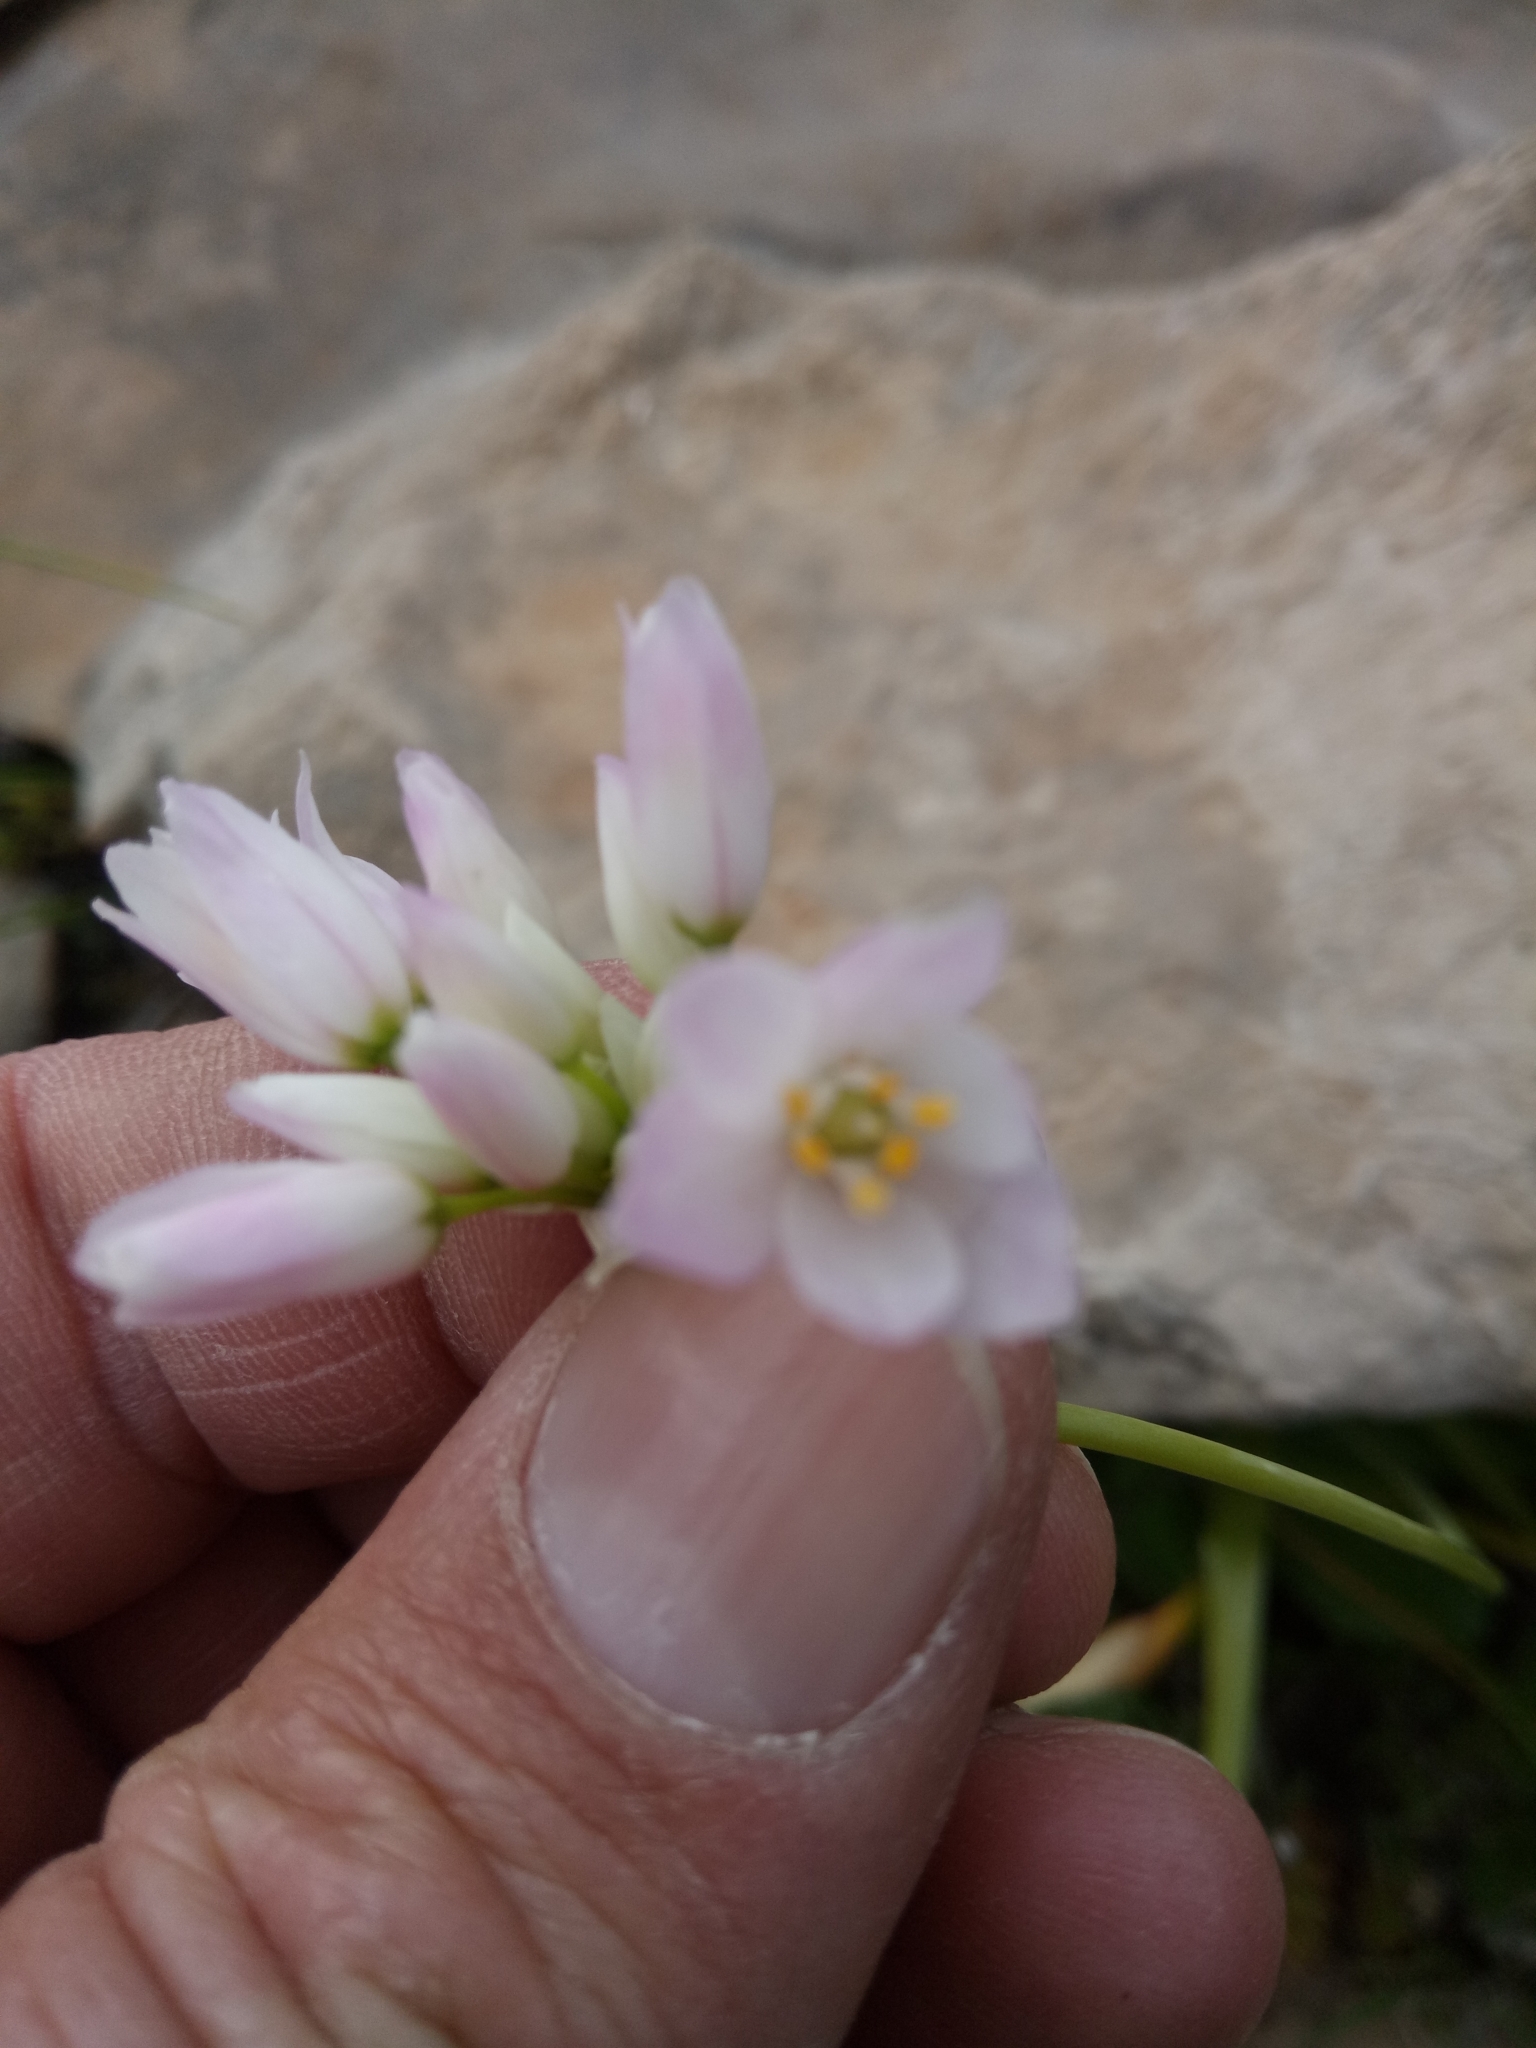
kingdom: Plantae
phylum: Tracheophyta
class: Liliopsida
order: Asparagales
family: Amaryllidaceae
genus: Allium
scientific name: Allium roseum
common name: Rosy garlic
